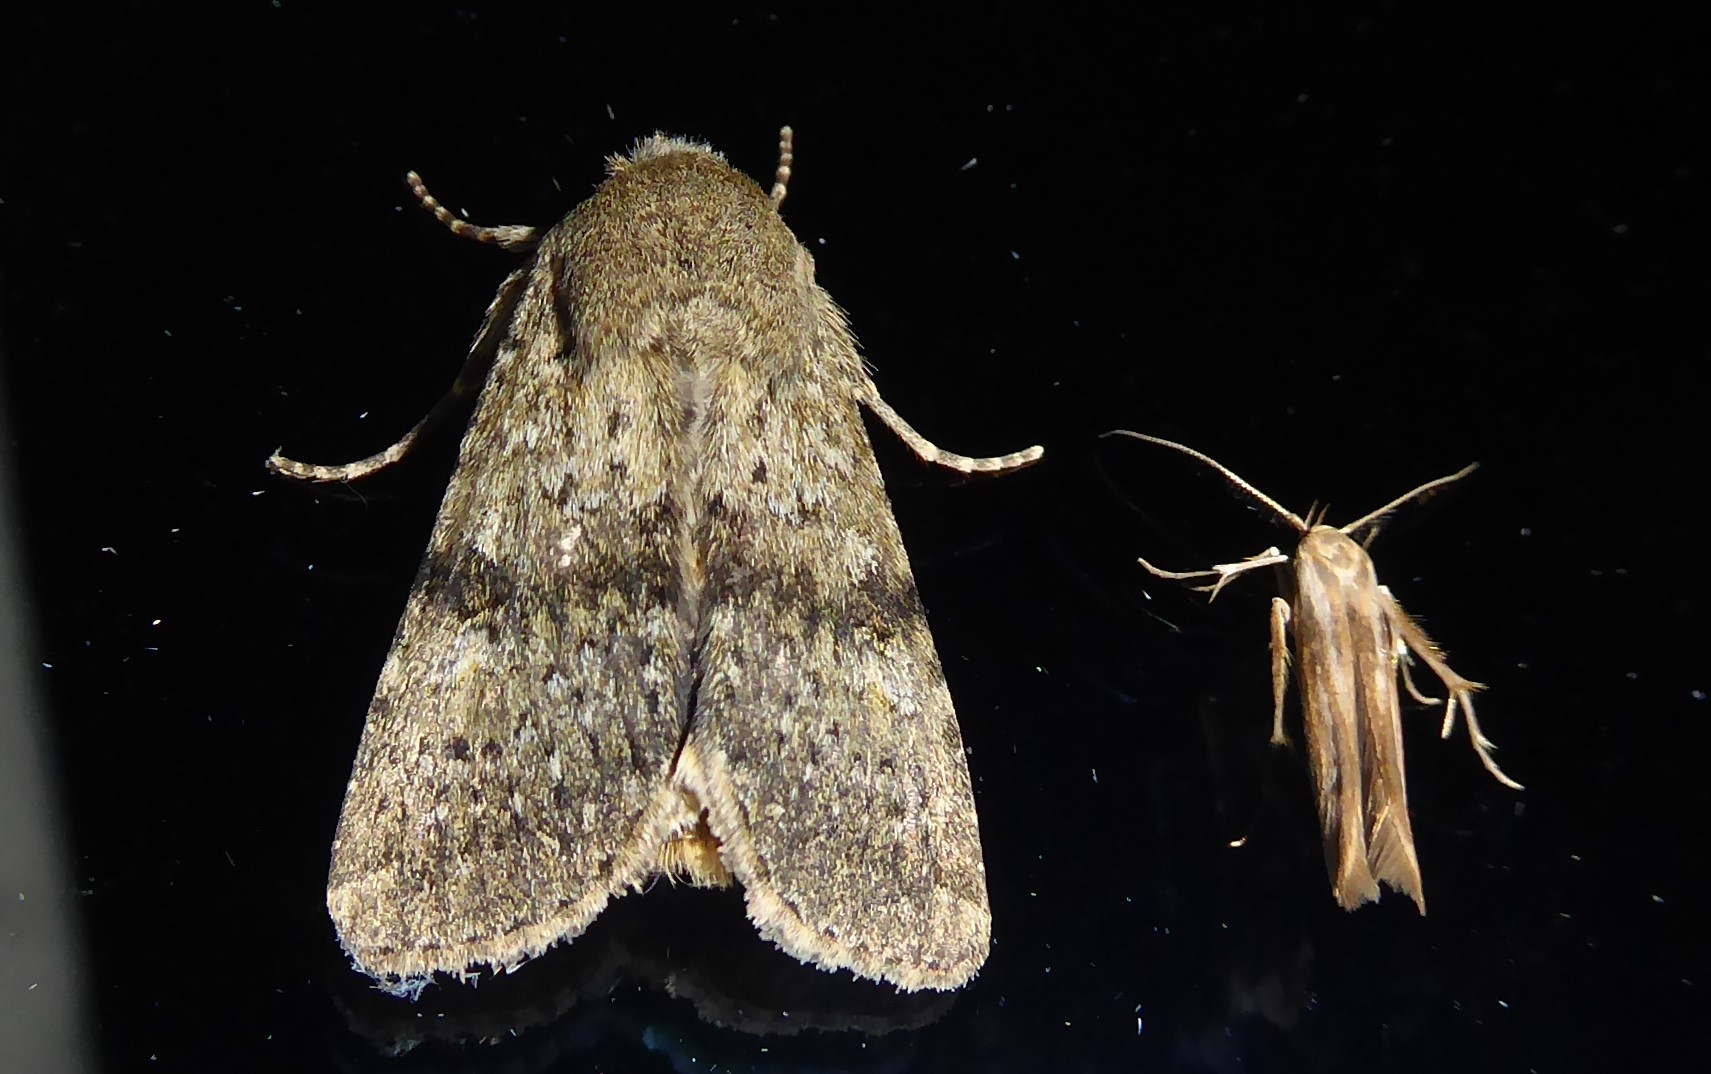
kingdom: Animalia
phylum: Arthropoda
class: Insecta
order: Lepidoptera
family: Noctuidae
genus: Ichneutica
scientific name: Ichneutica moderata
